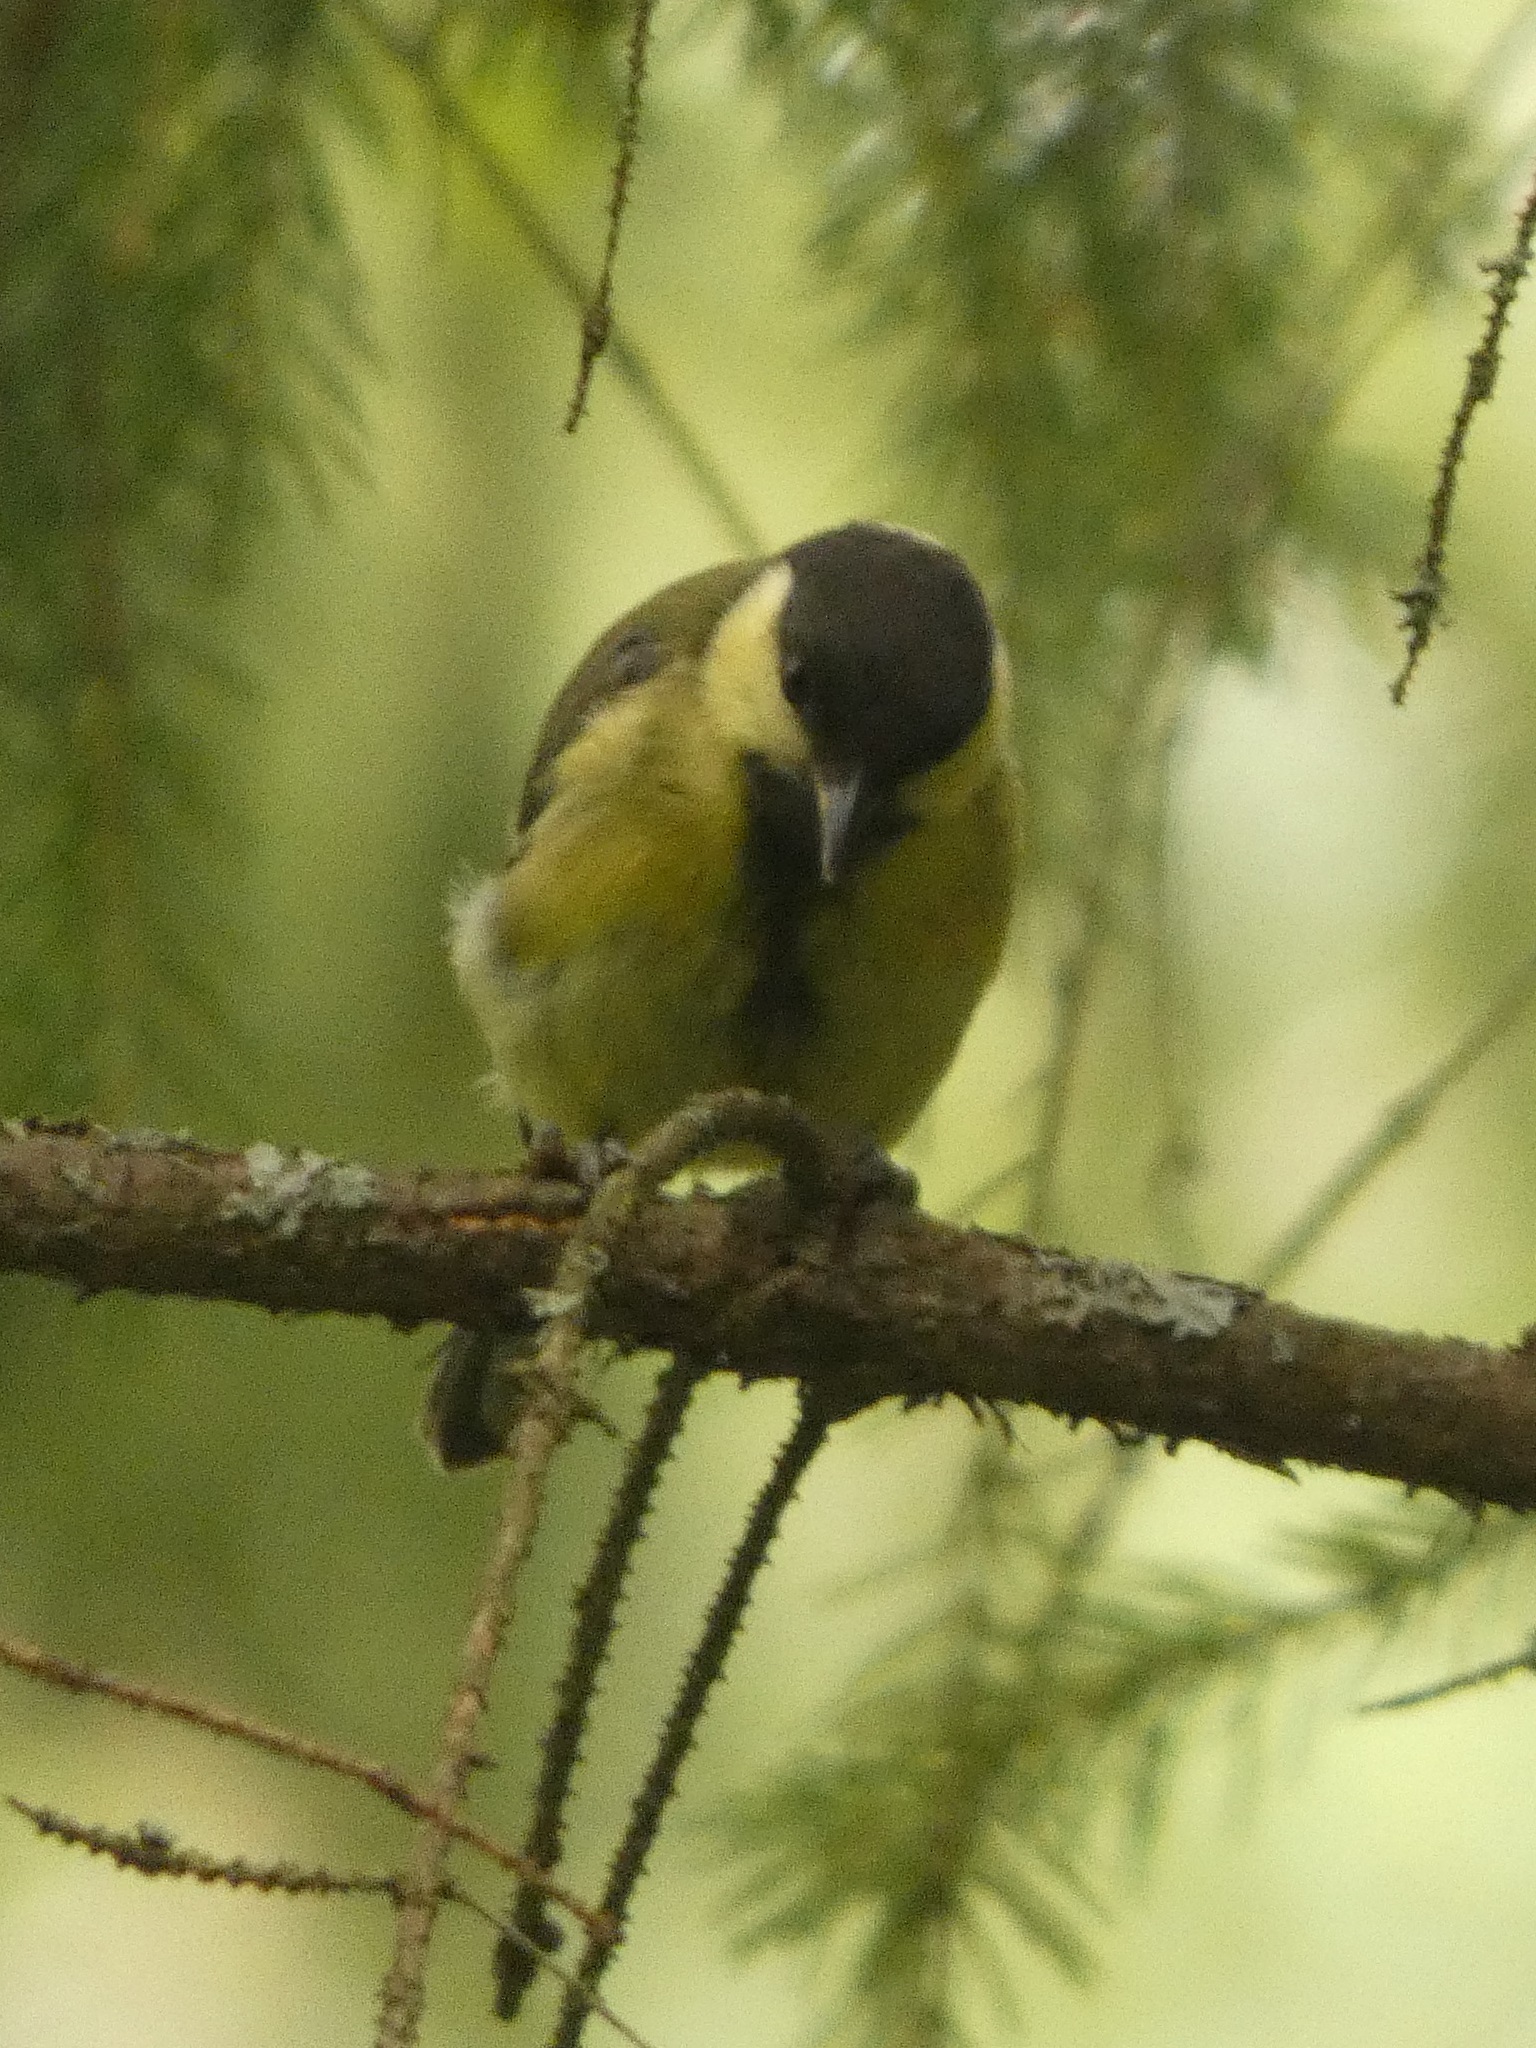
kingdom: Animalia
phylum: Chordata
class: Aves
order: Passeriformes
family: Paridae
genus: Parus
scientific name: Parus major
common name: Great tit
